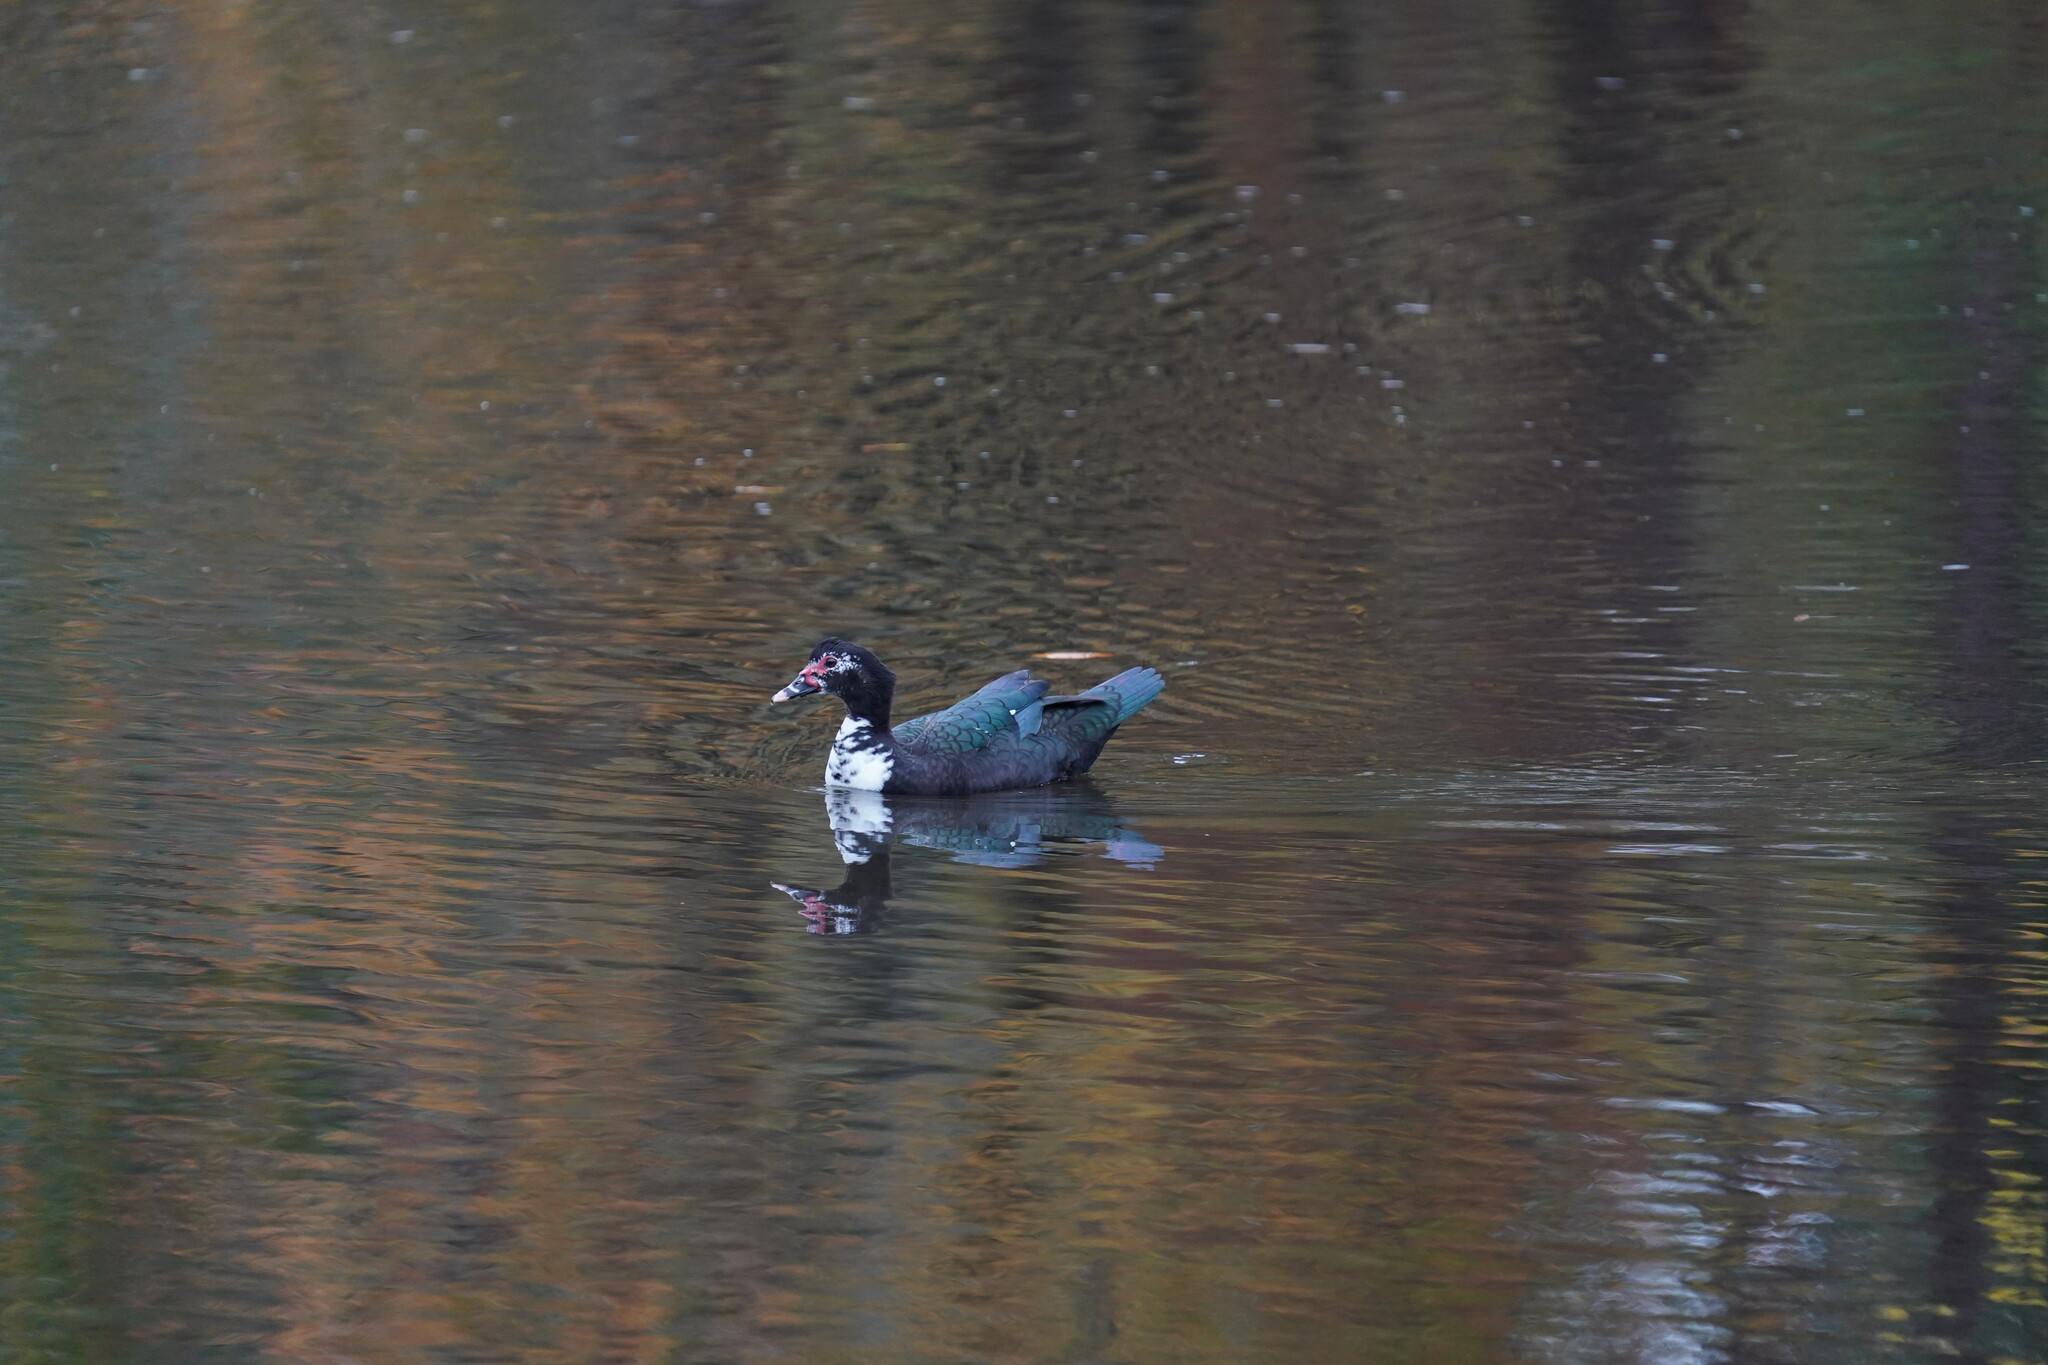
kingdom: Animalia
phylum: Chordata
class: Aves
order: Anseriformes
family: Anatidae
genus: Cairina
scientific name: Cairina moschata
